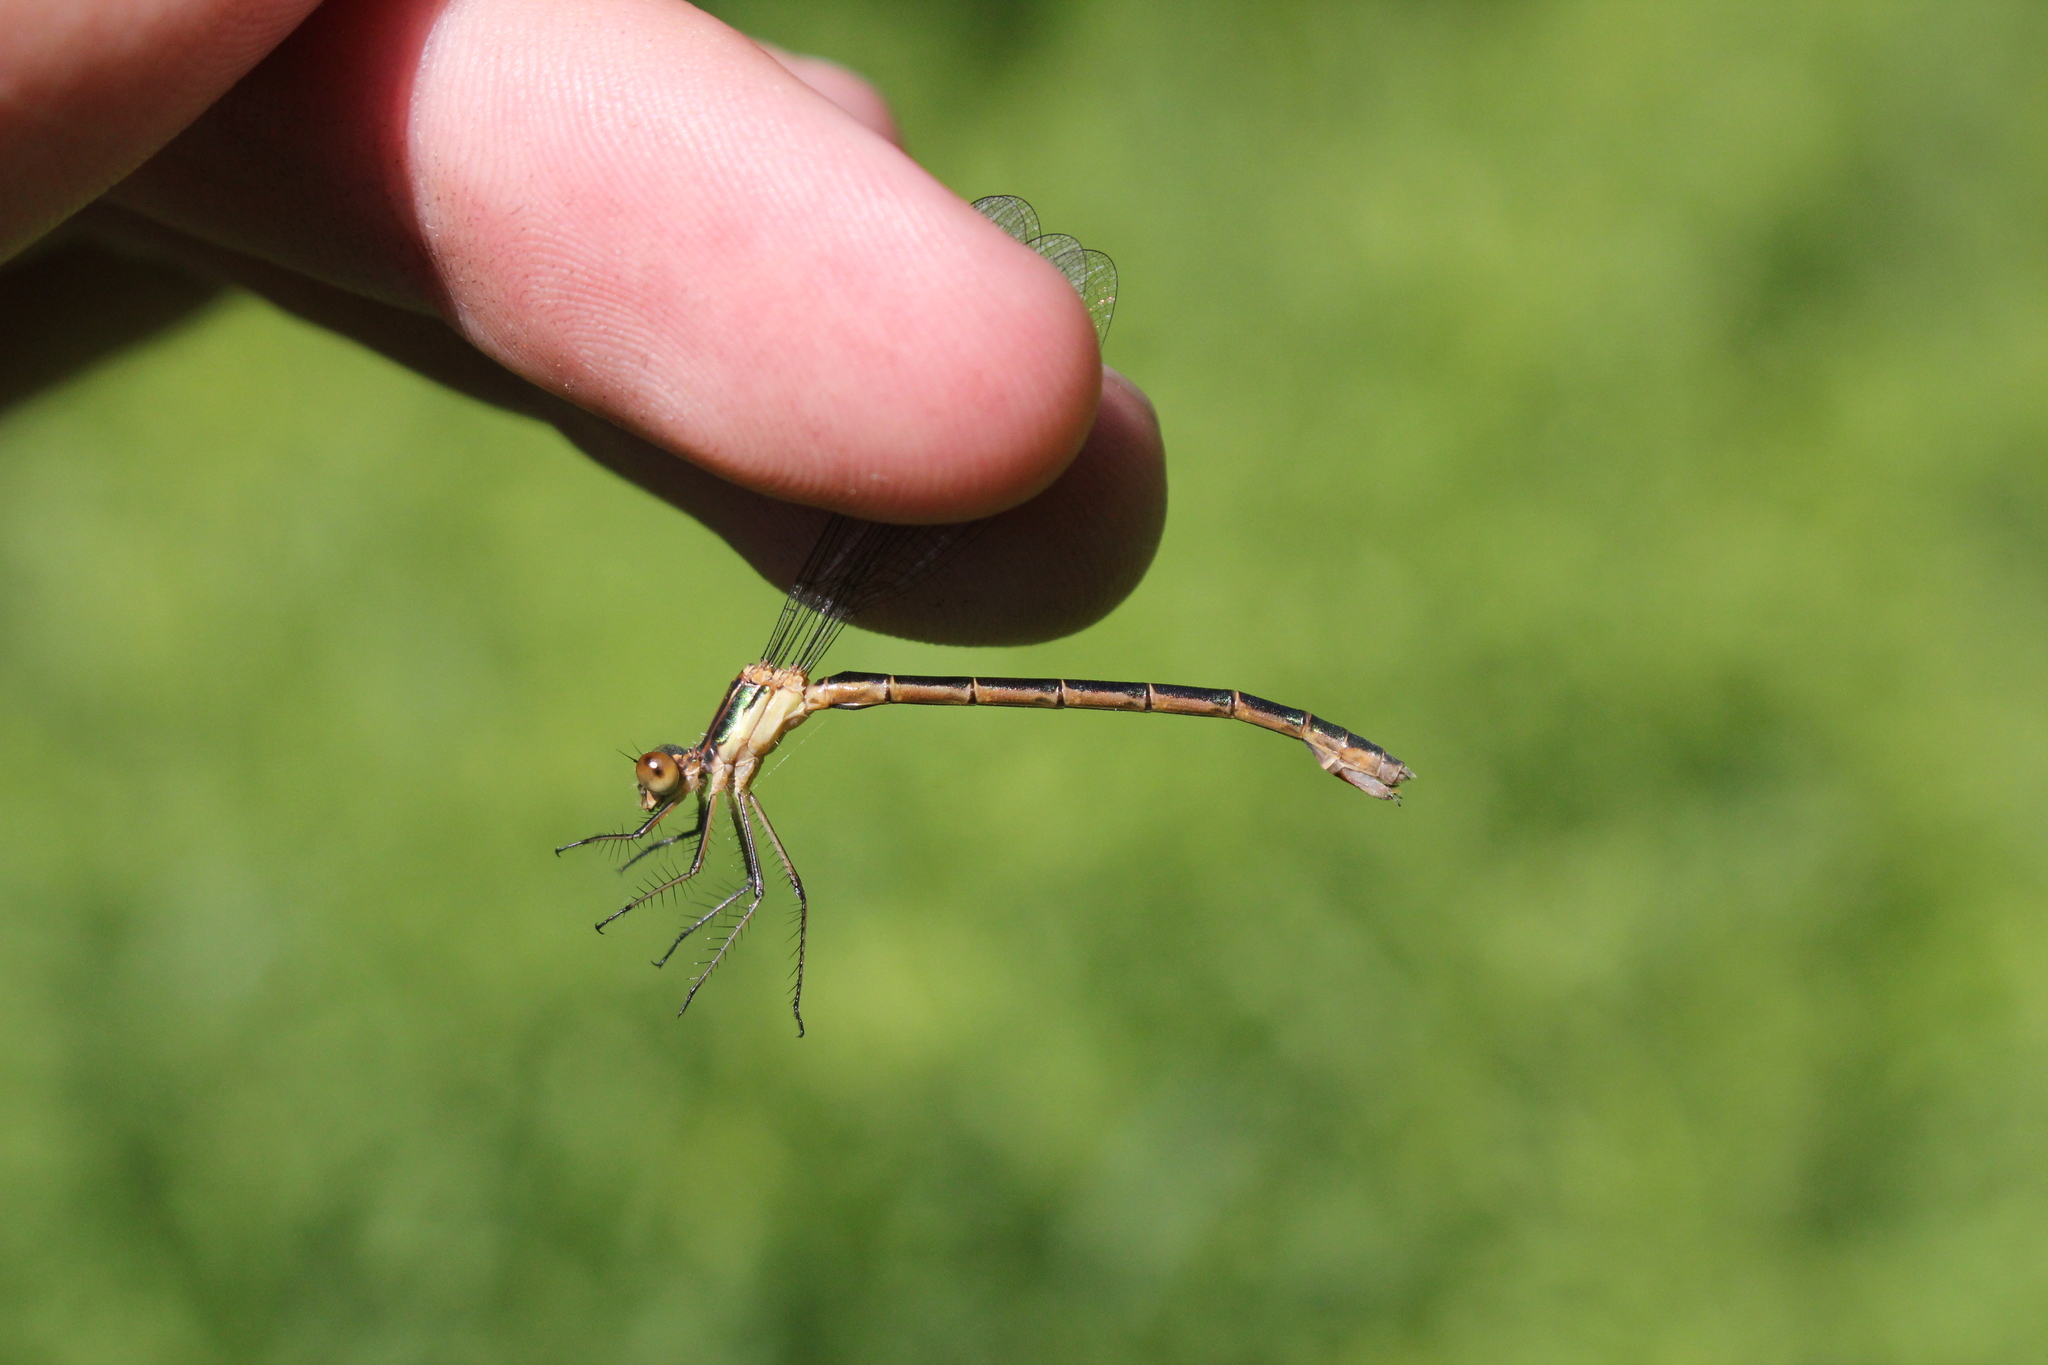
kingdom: Animalia
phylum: Arthropoda
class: Insecta
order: Odonata
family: Lestidae
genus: Lestes
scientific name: Lestes dryas
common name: Scarce emerald damselfly
